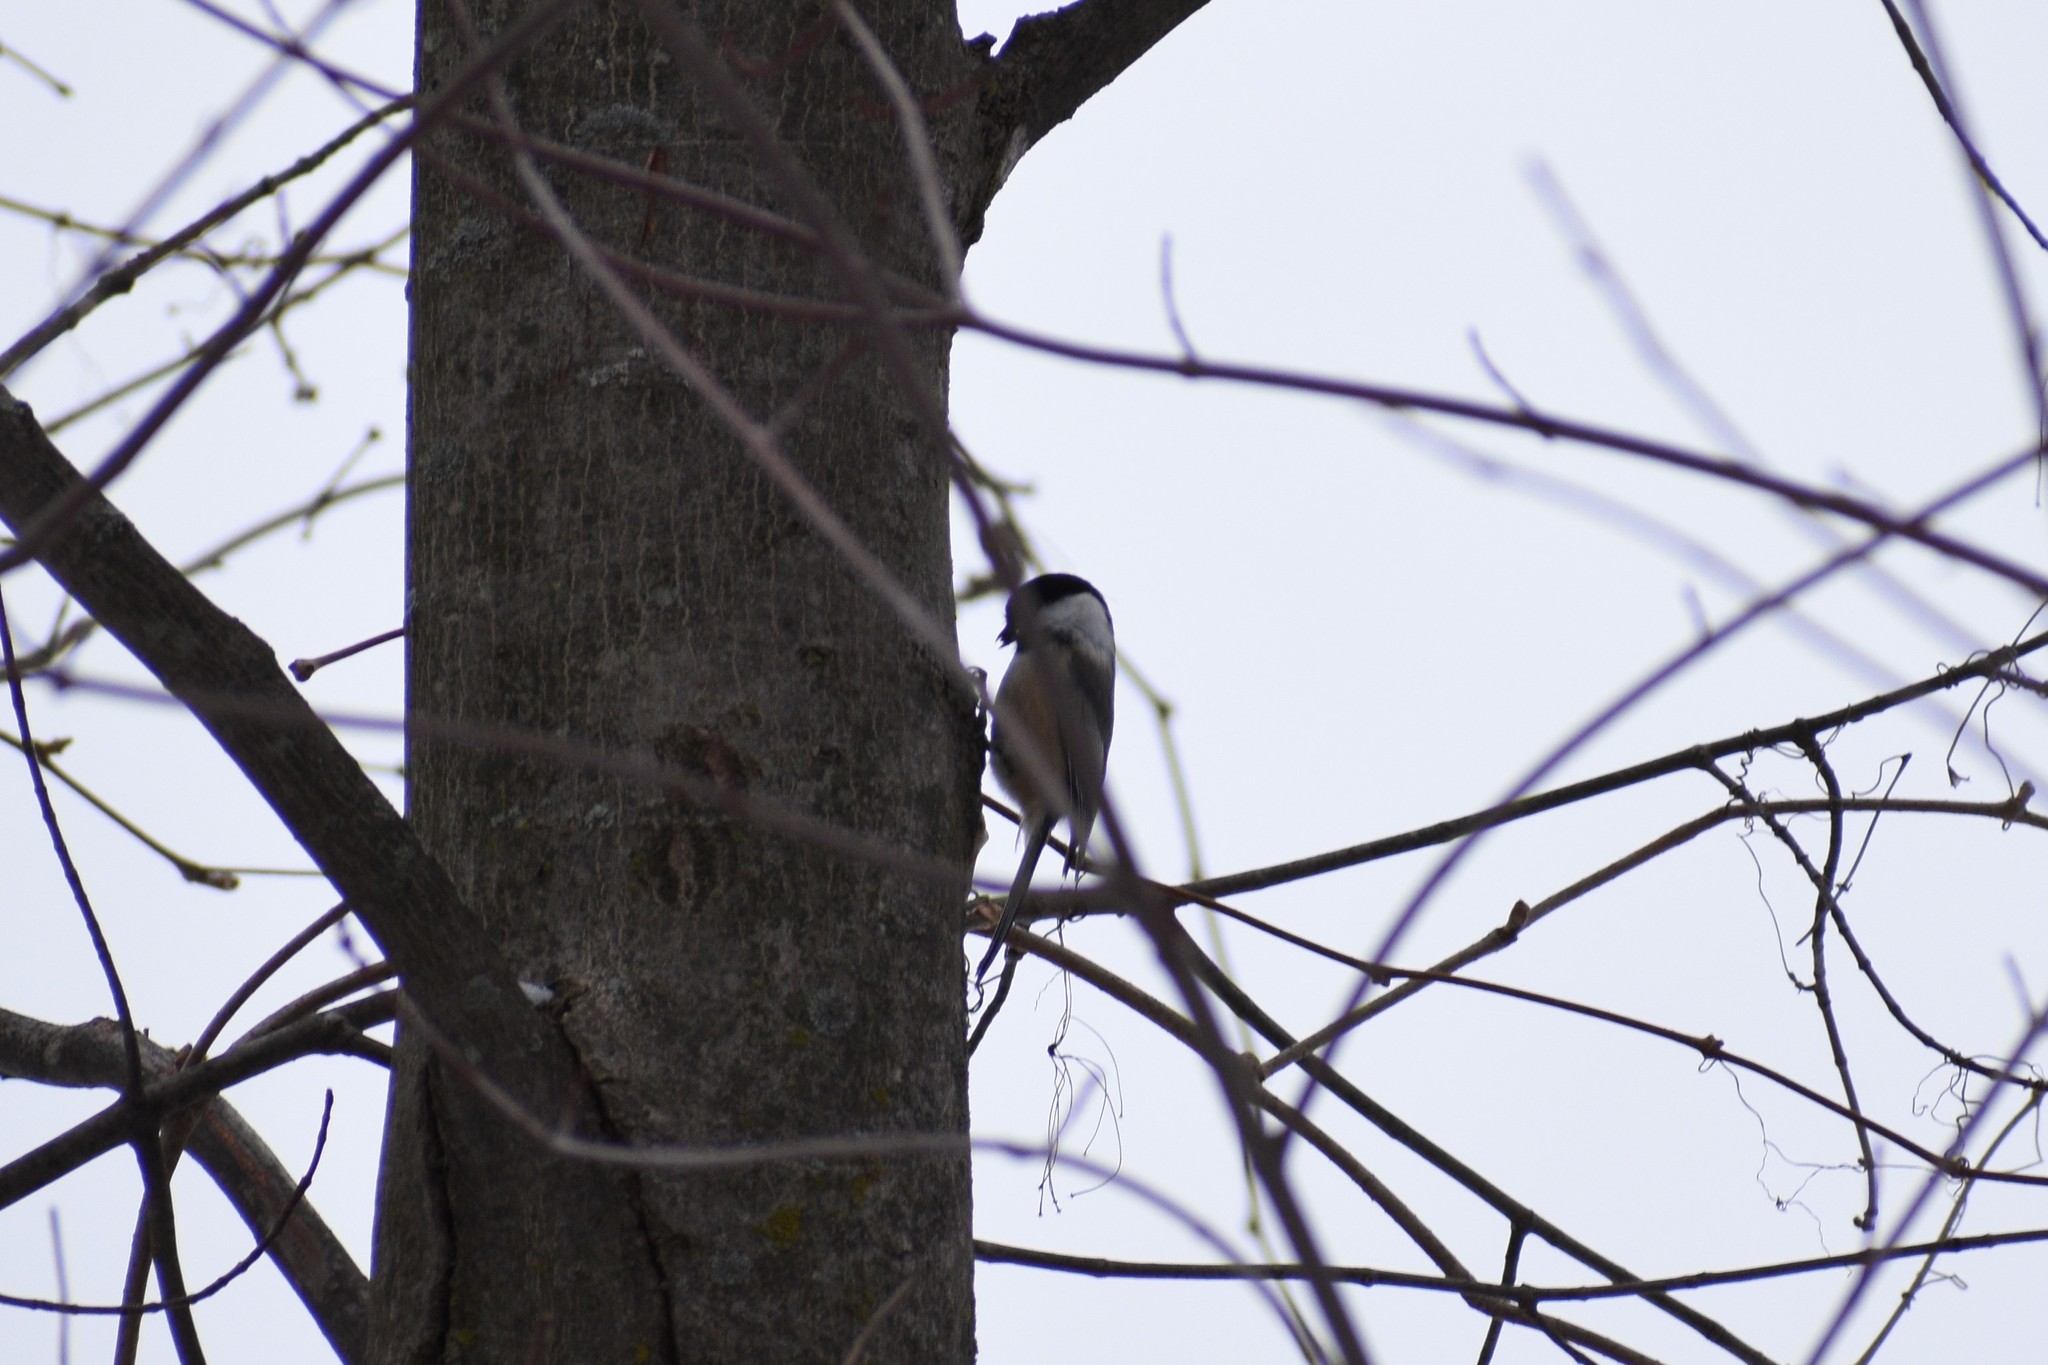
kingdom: Animalia
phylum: Chordata
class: Aves
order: Passeriformes
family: Paridae
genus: Poecile
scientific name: Poecile atricapillus
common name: Black-capped chickadee
